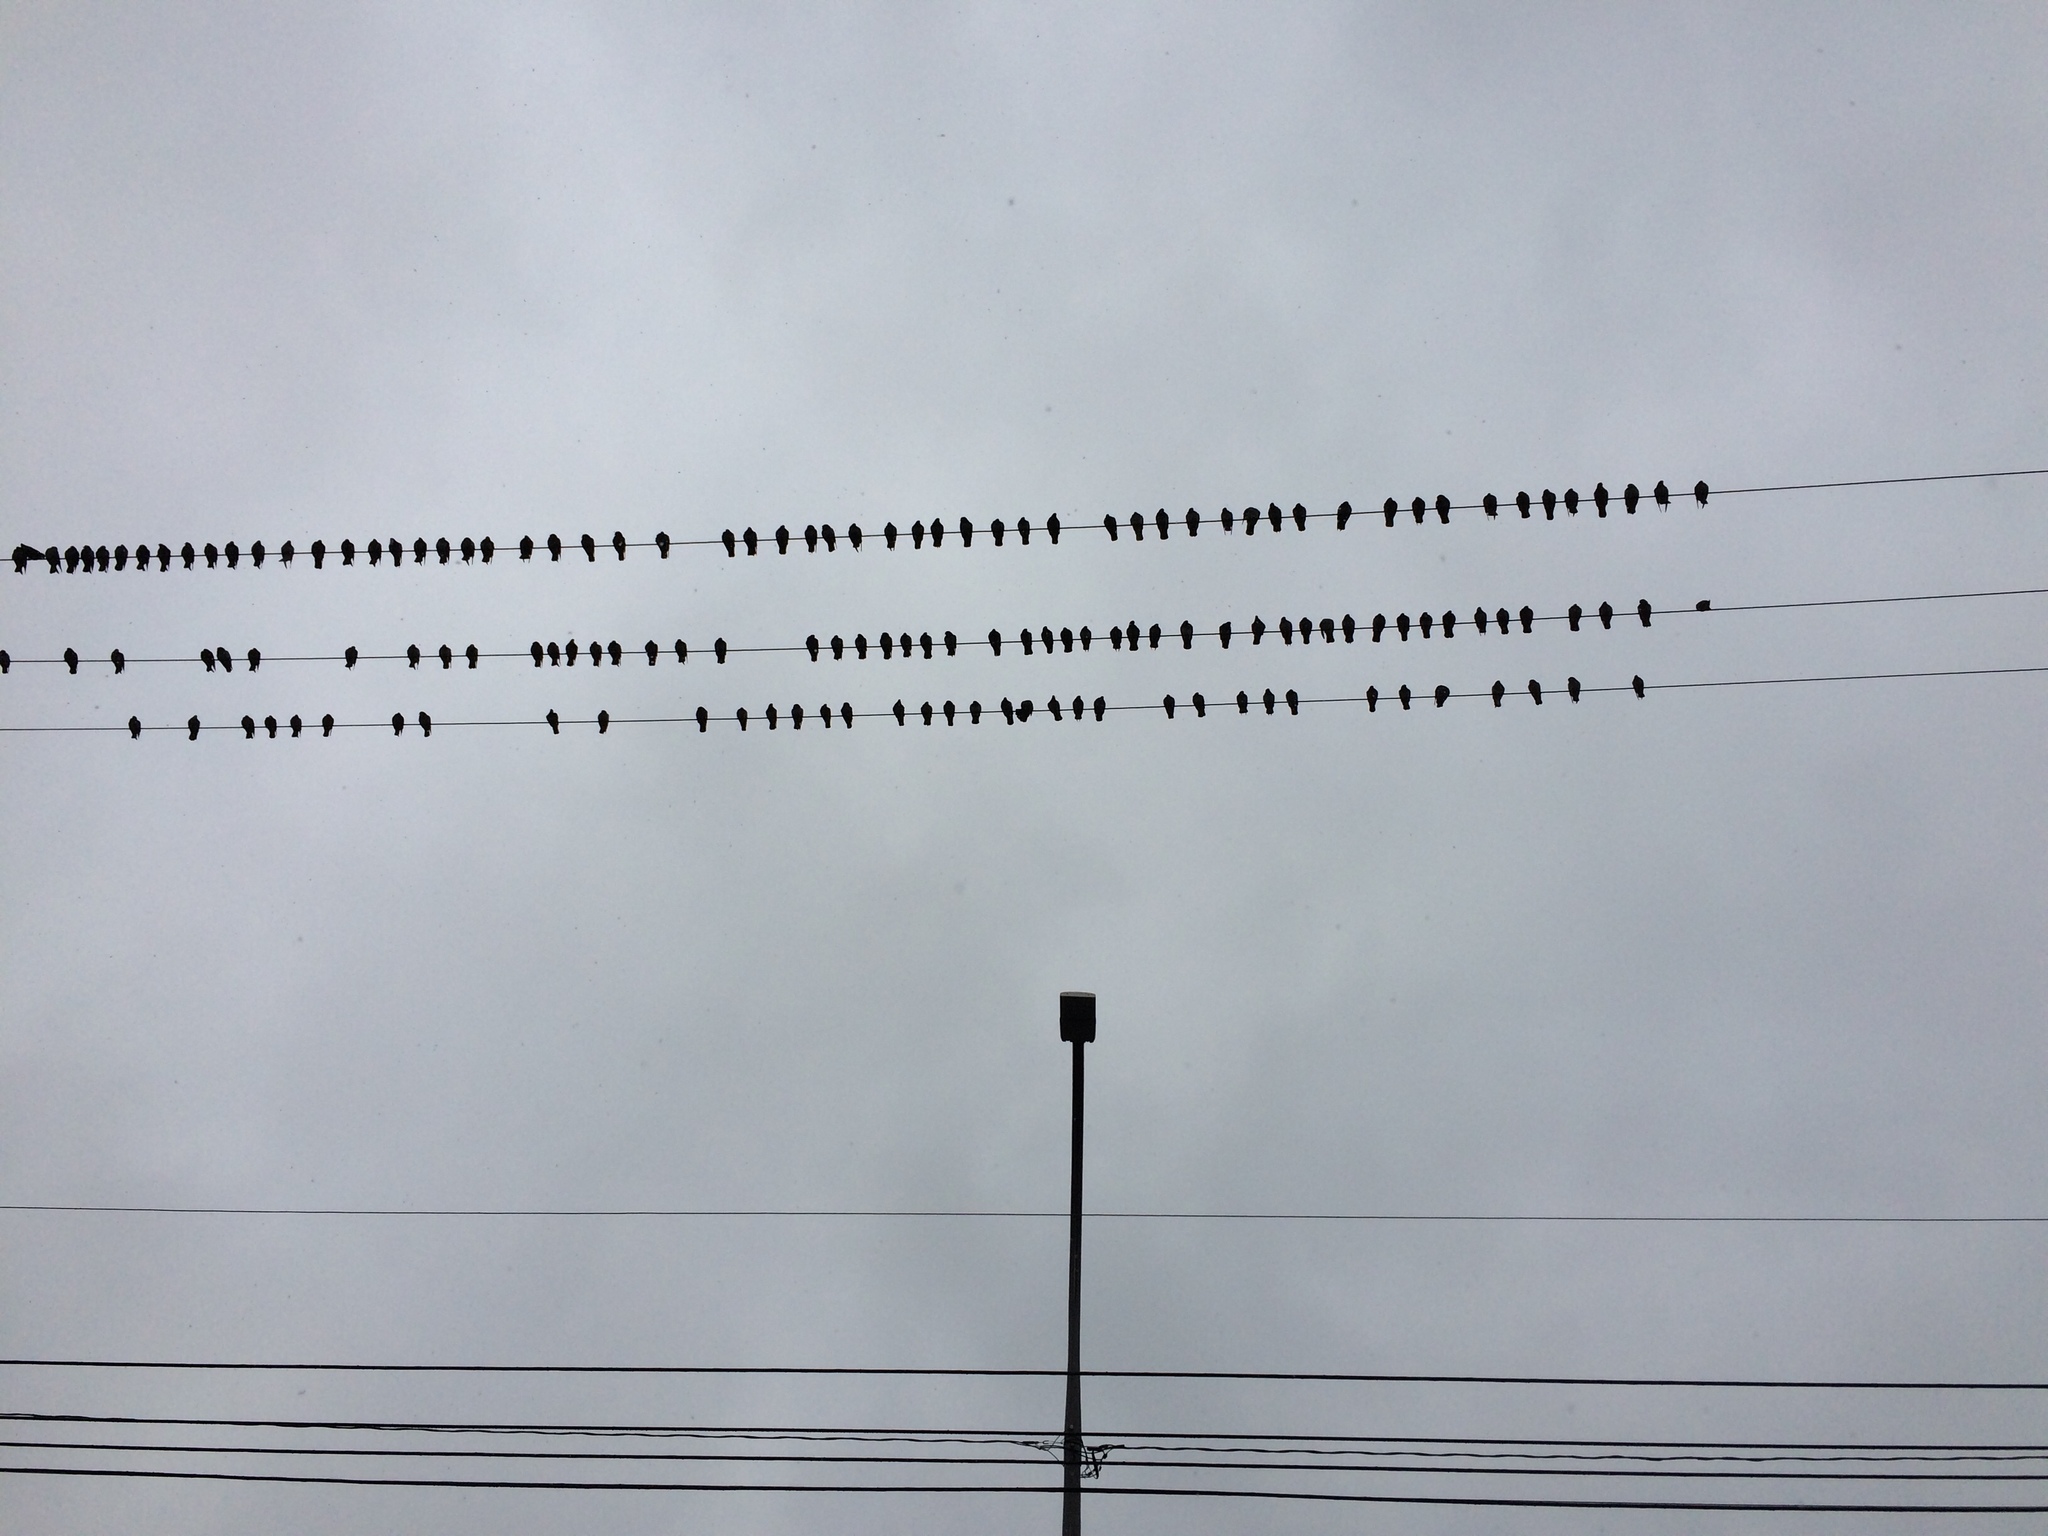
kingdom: Animalia
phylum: Chordata
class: Aves
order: Columbiformes
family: Columbidae
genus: Columba
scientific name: Columba livia
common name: Rock pigeon
